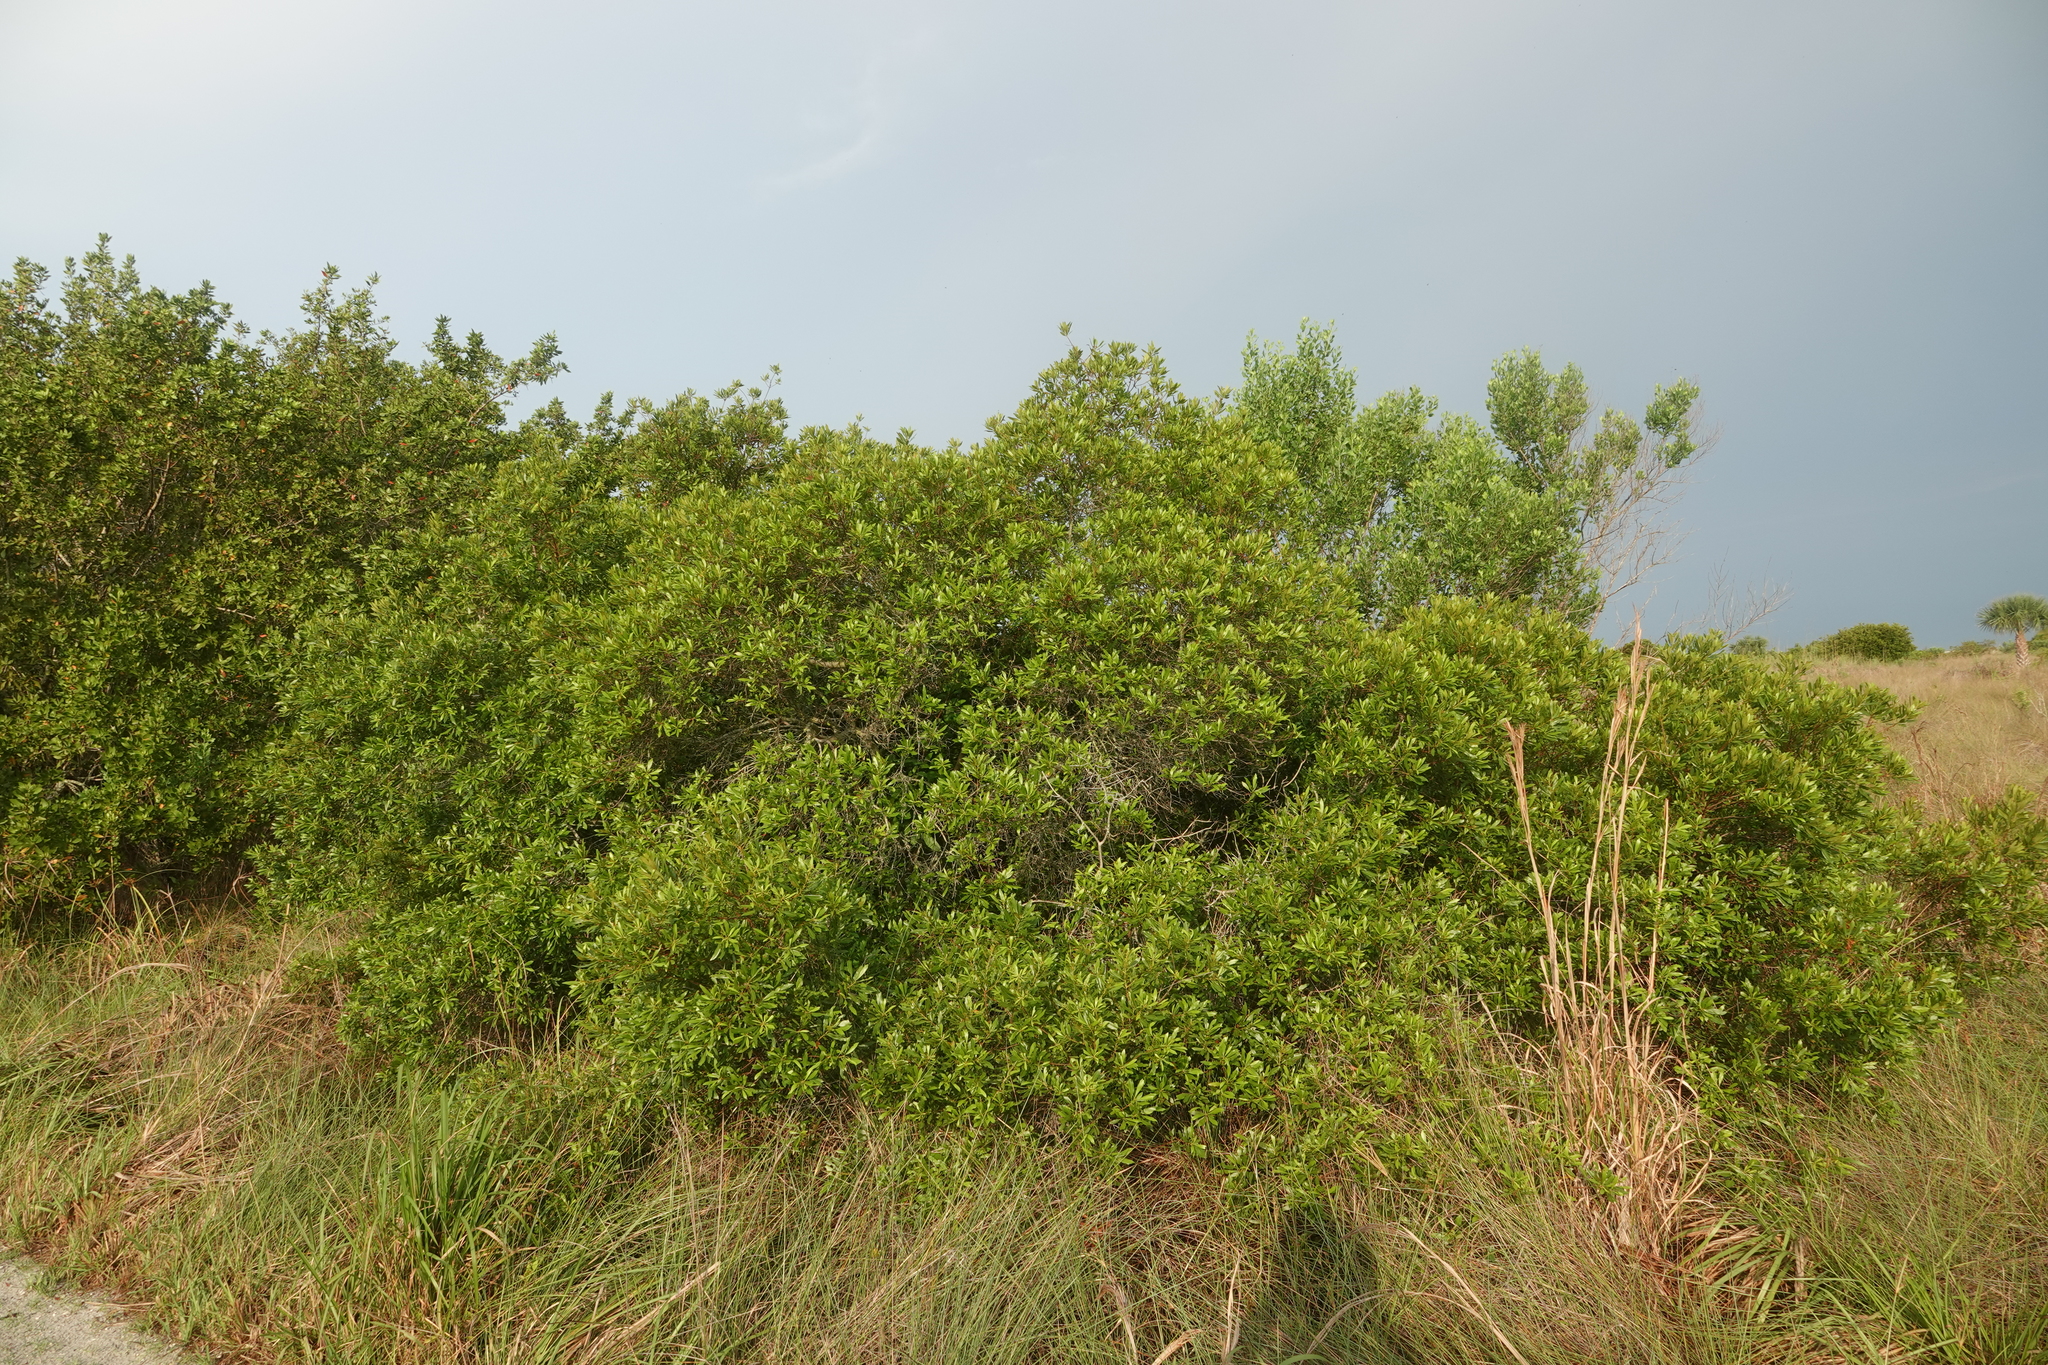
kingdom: Plantae
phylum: Tracheophyta
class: Magnoliopsida
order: Fagales
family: Myricaceae
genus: Morella
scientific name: Morella cerifera
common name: Wax myrtle
